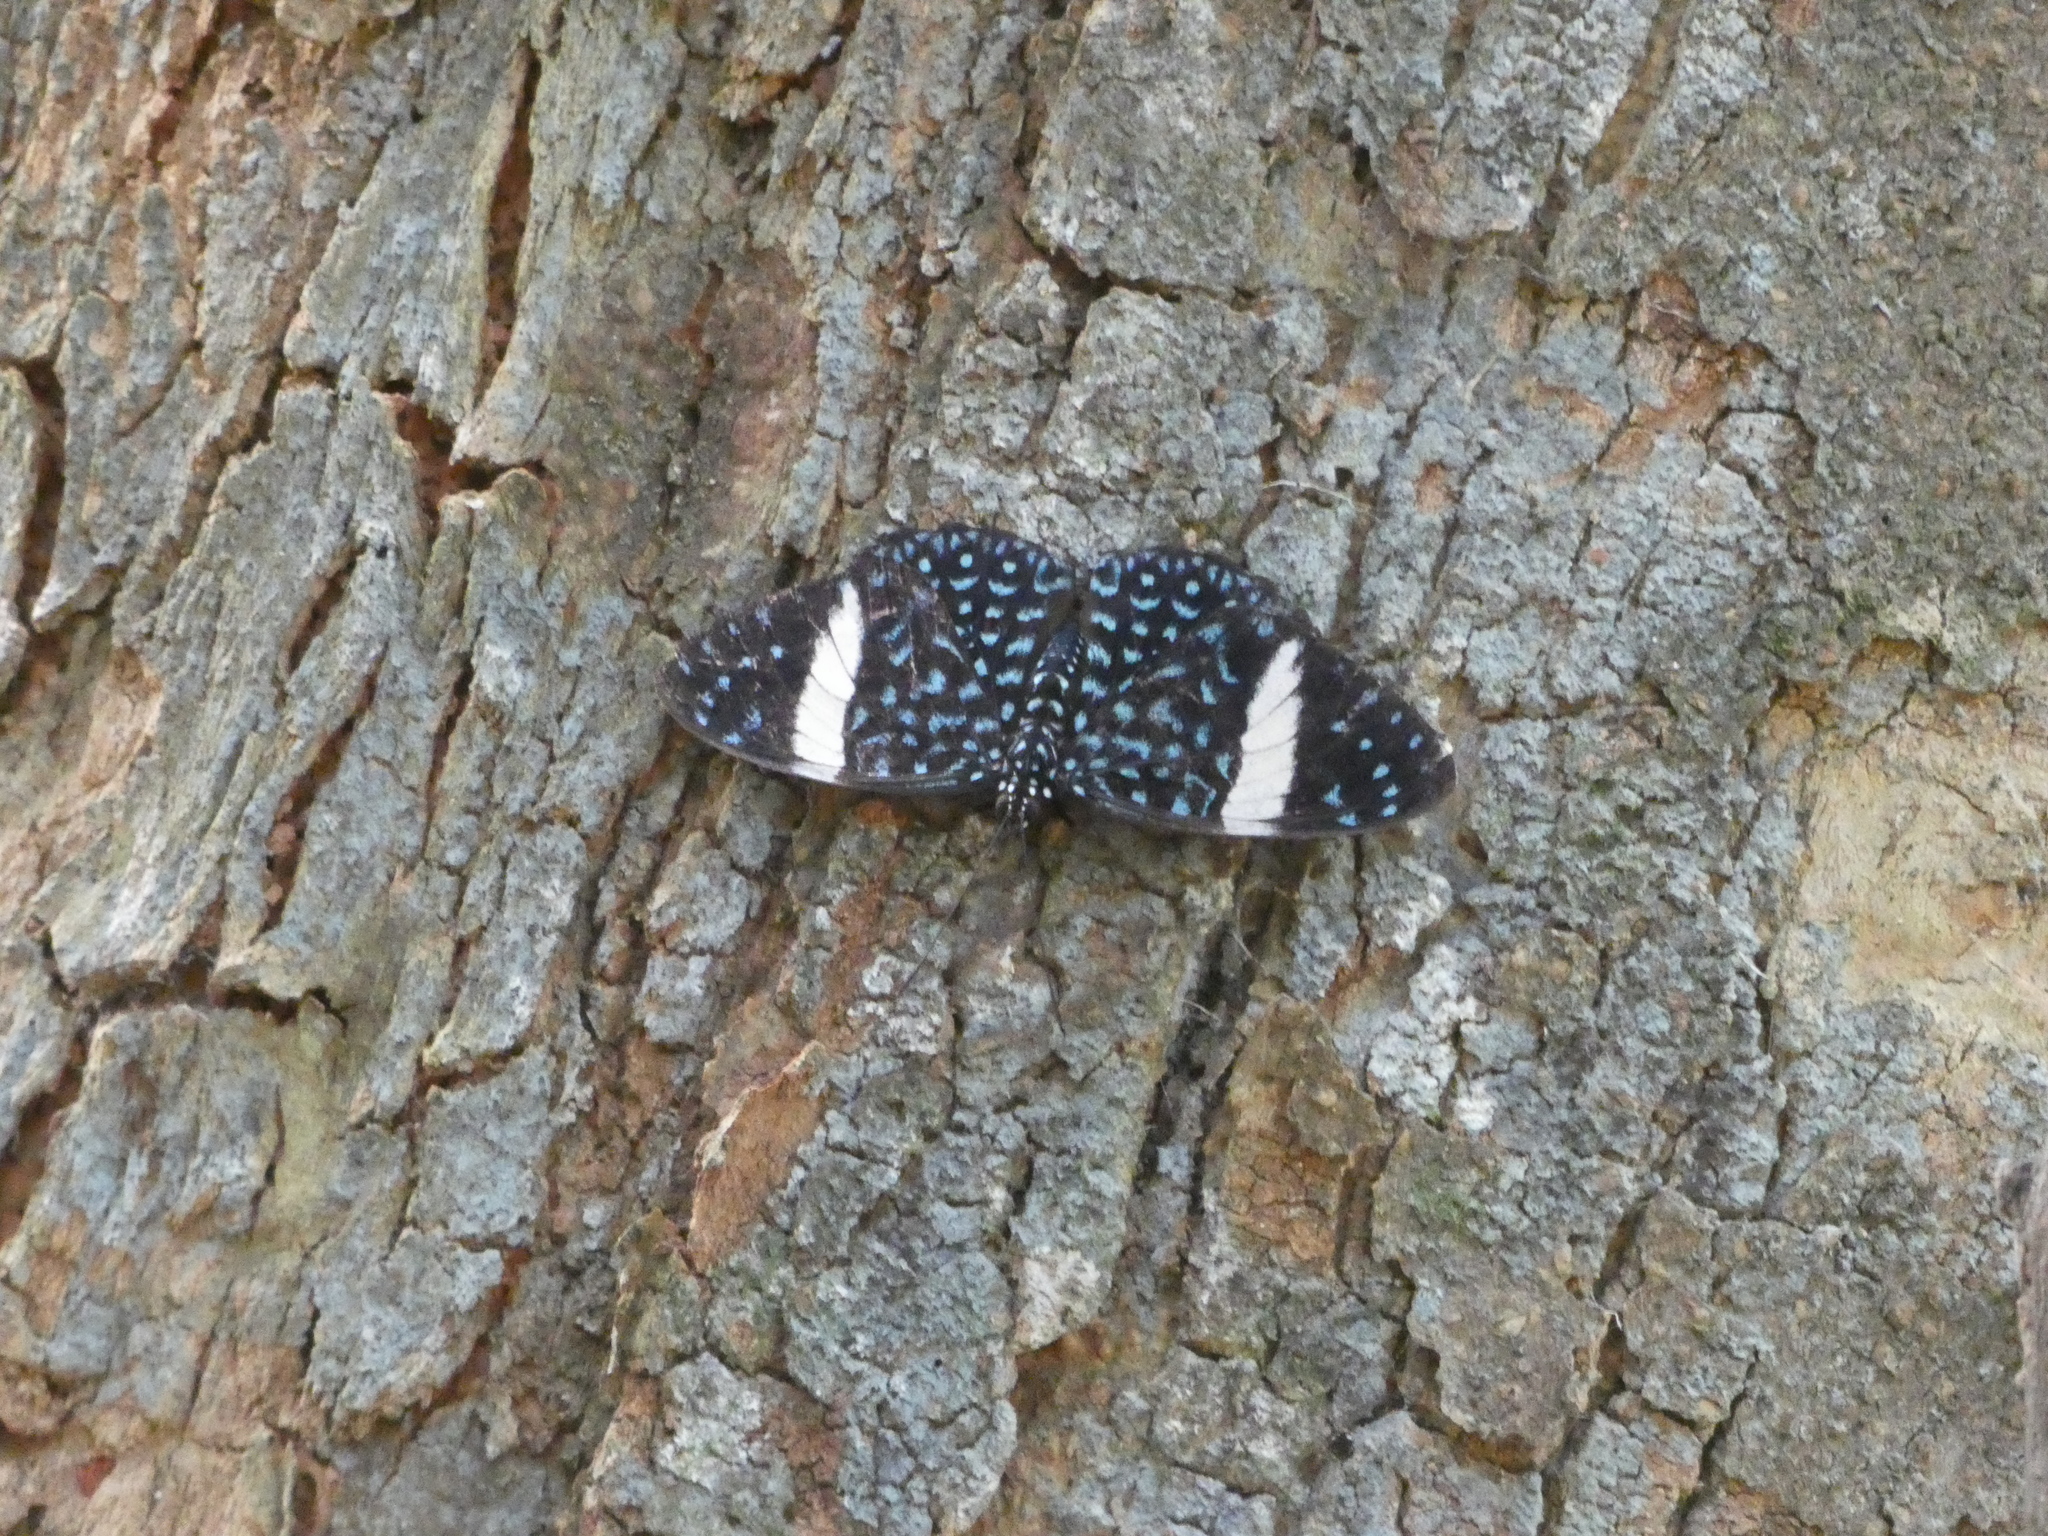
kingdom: Animalia
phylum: Arthropoda
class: Insecta
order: Lepidoptera
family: Nymphalidae
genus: Hamadryas
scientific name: Hamadryas laodamia
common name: Starry night cracker
